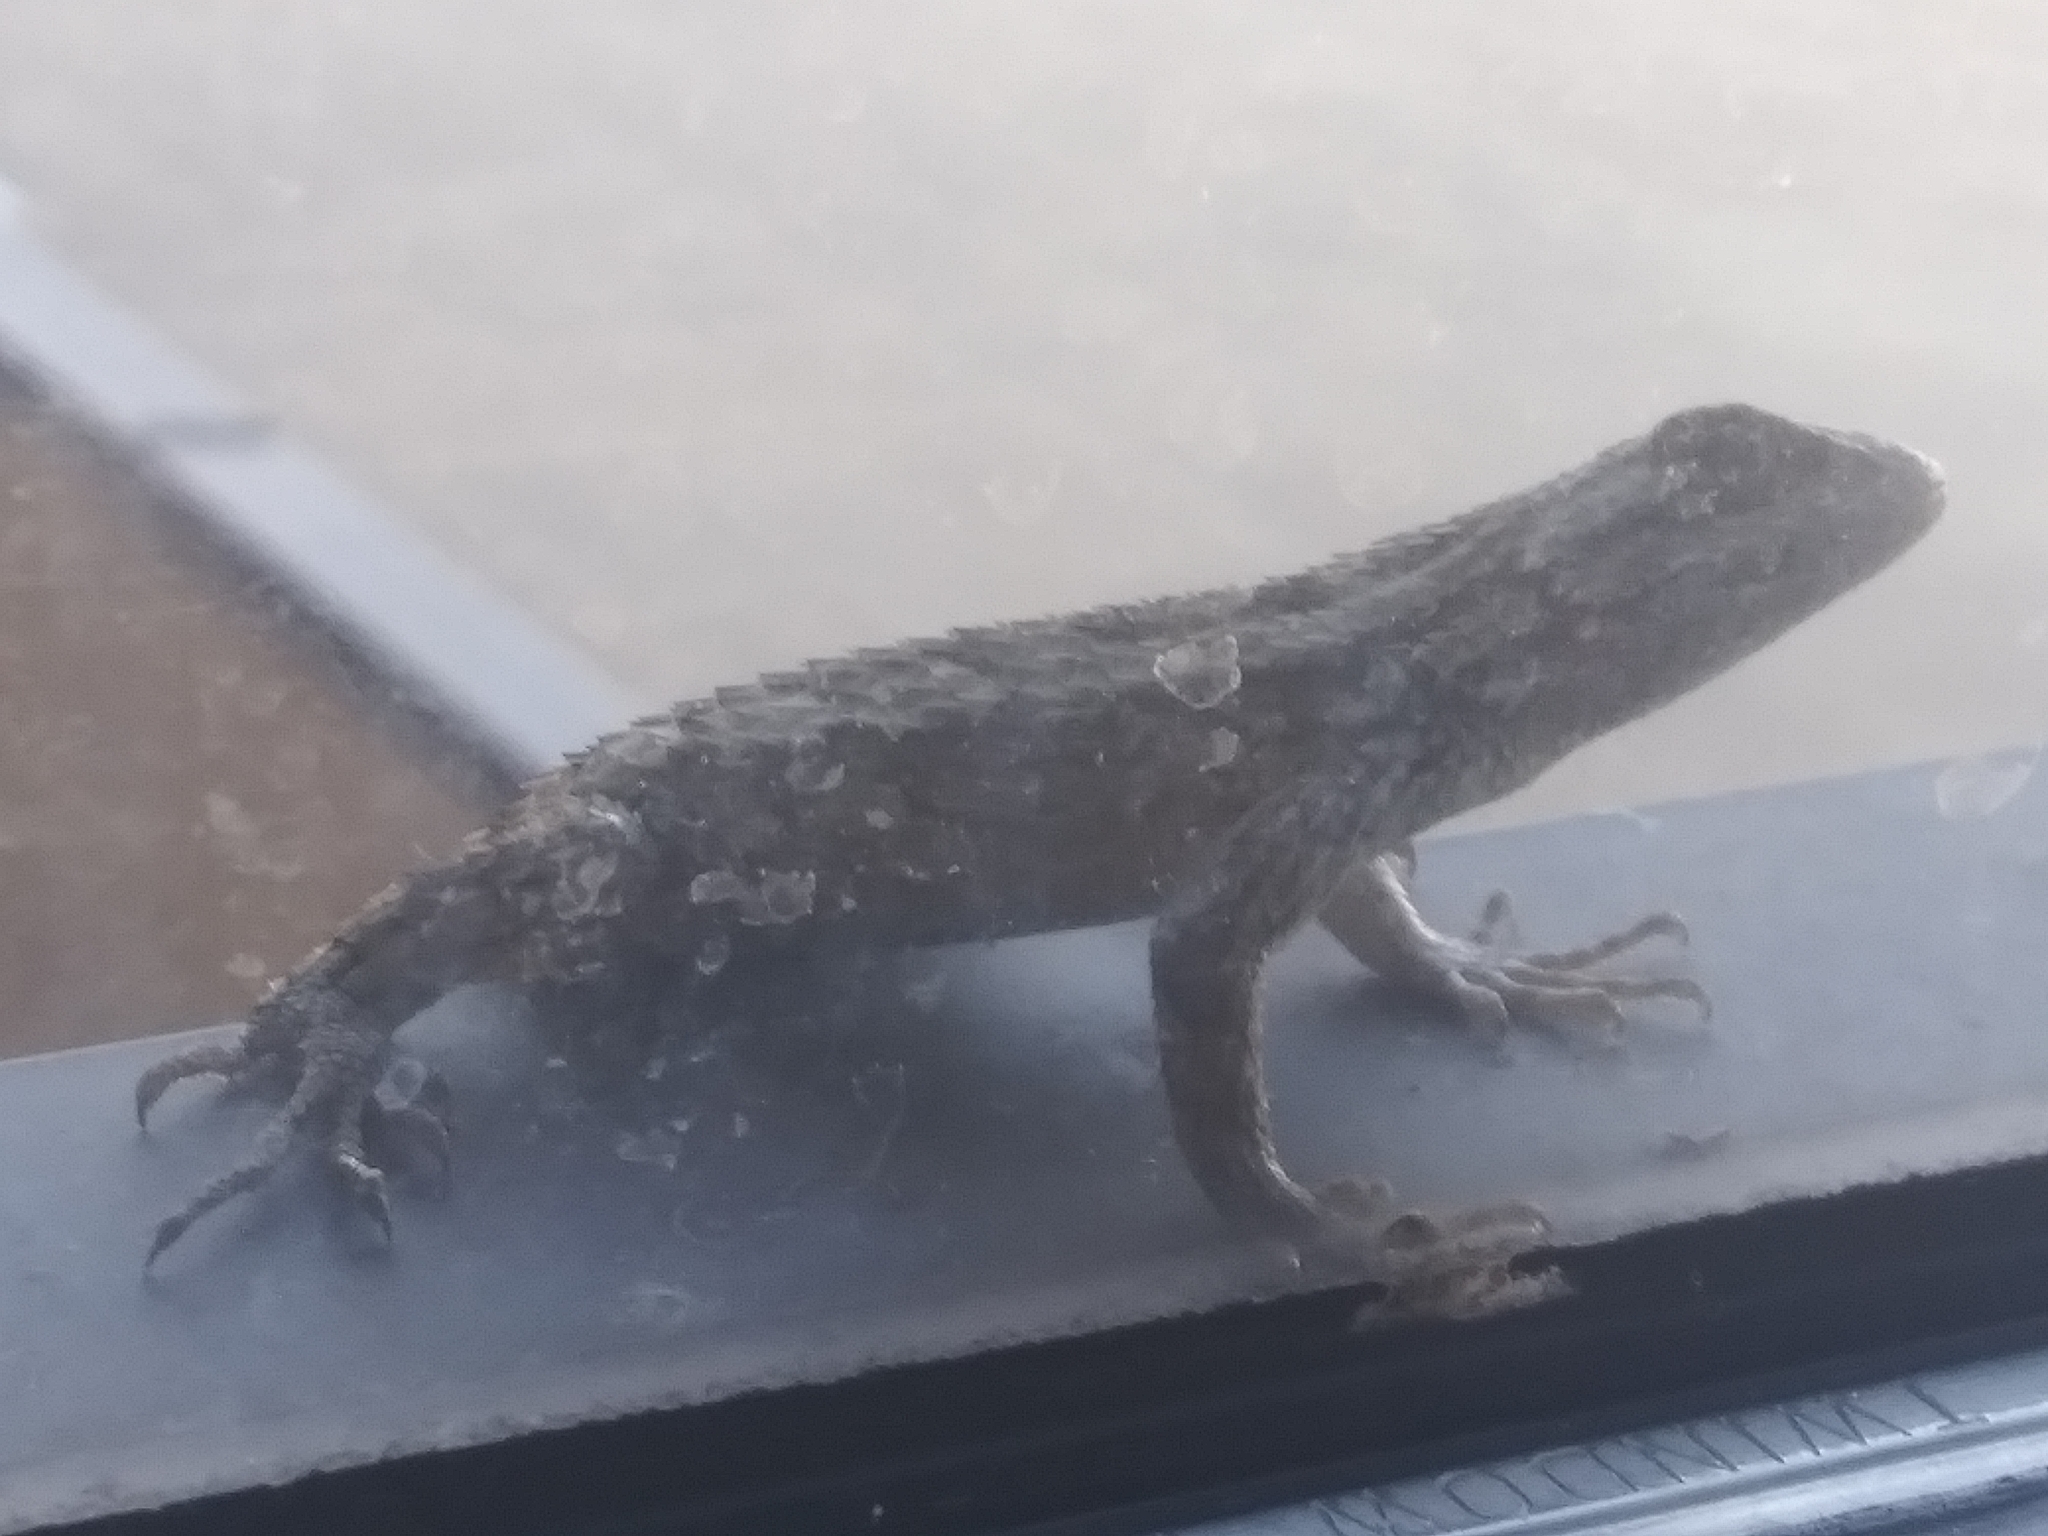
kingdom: Animalia
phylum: Chordata
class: Squamata
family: Phrynosomatidae
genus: Sceloporus
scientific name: Sceloporus olivaceus
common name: Texas spiny lizard
